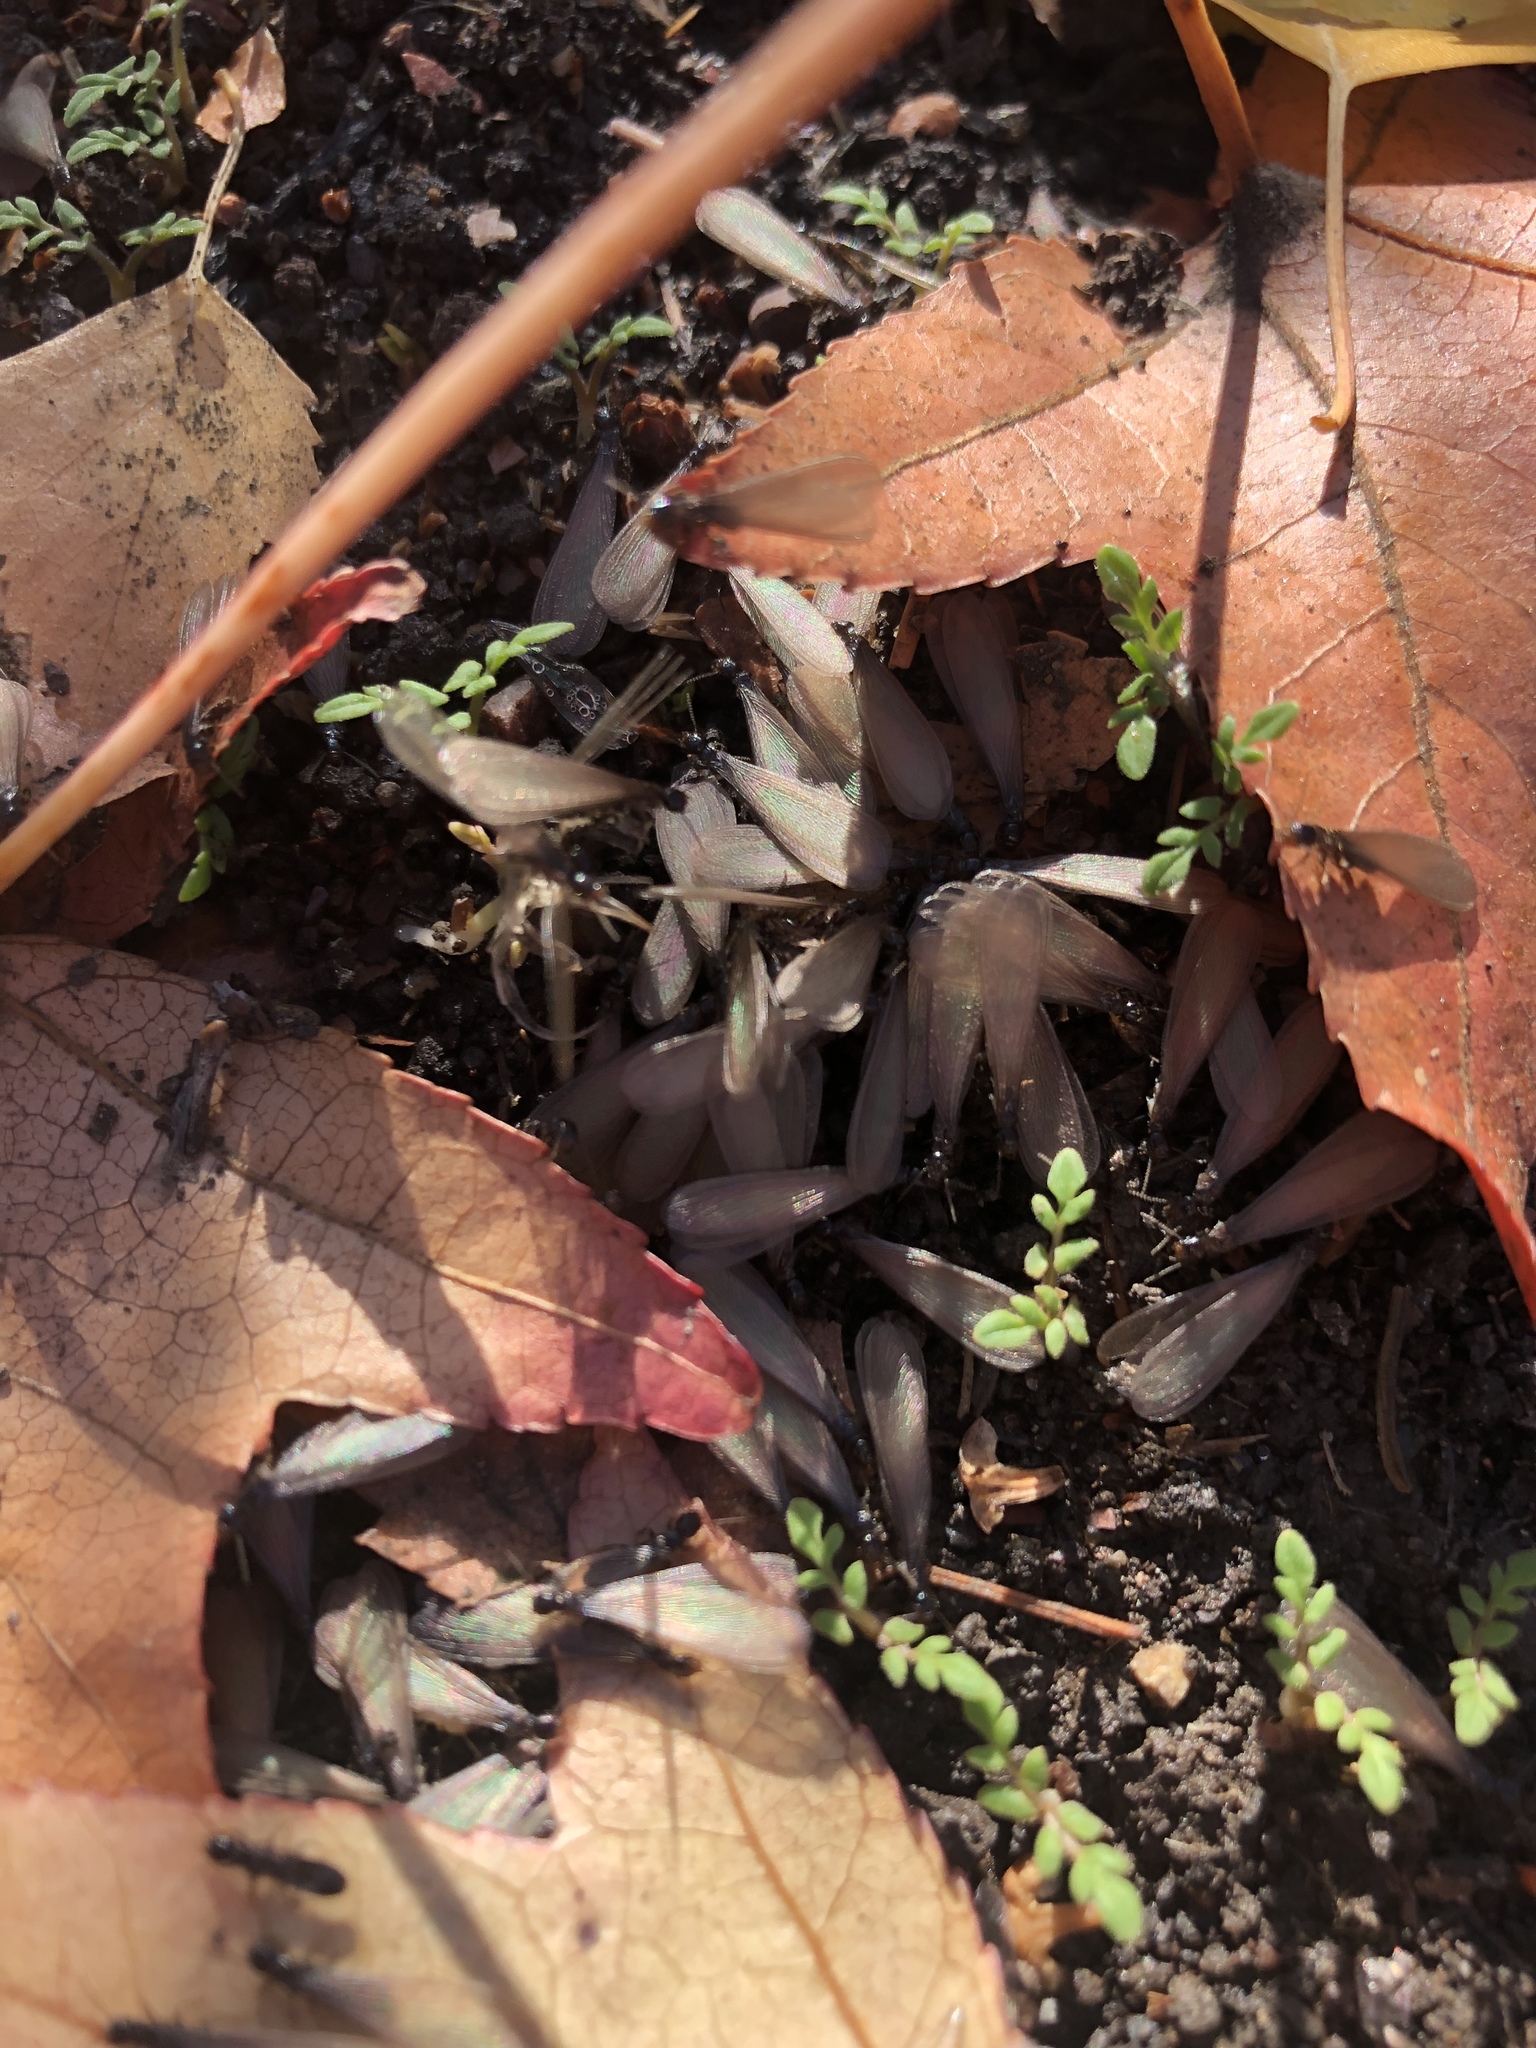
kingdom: Animalia
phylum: Arthropoda
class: Insecta
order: Blattodea
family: Rhinotermitidae
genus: Reticulitermes
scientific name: Reticulitermes hesperus
